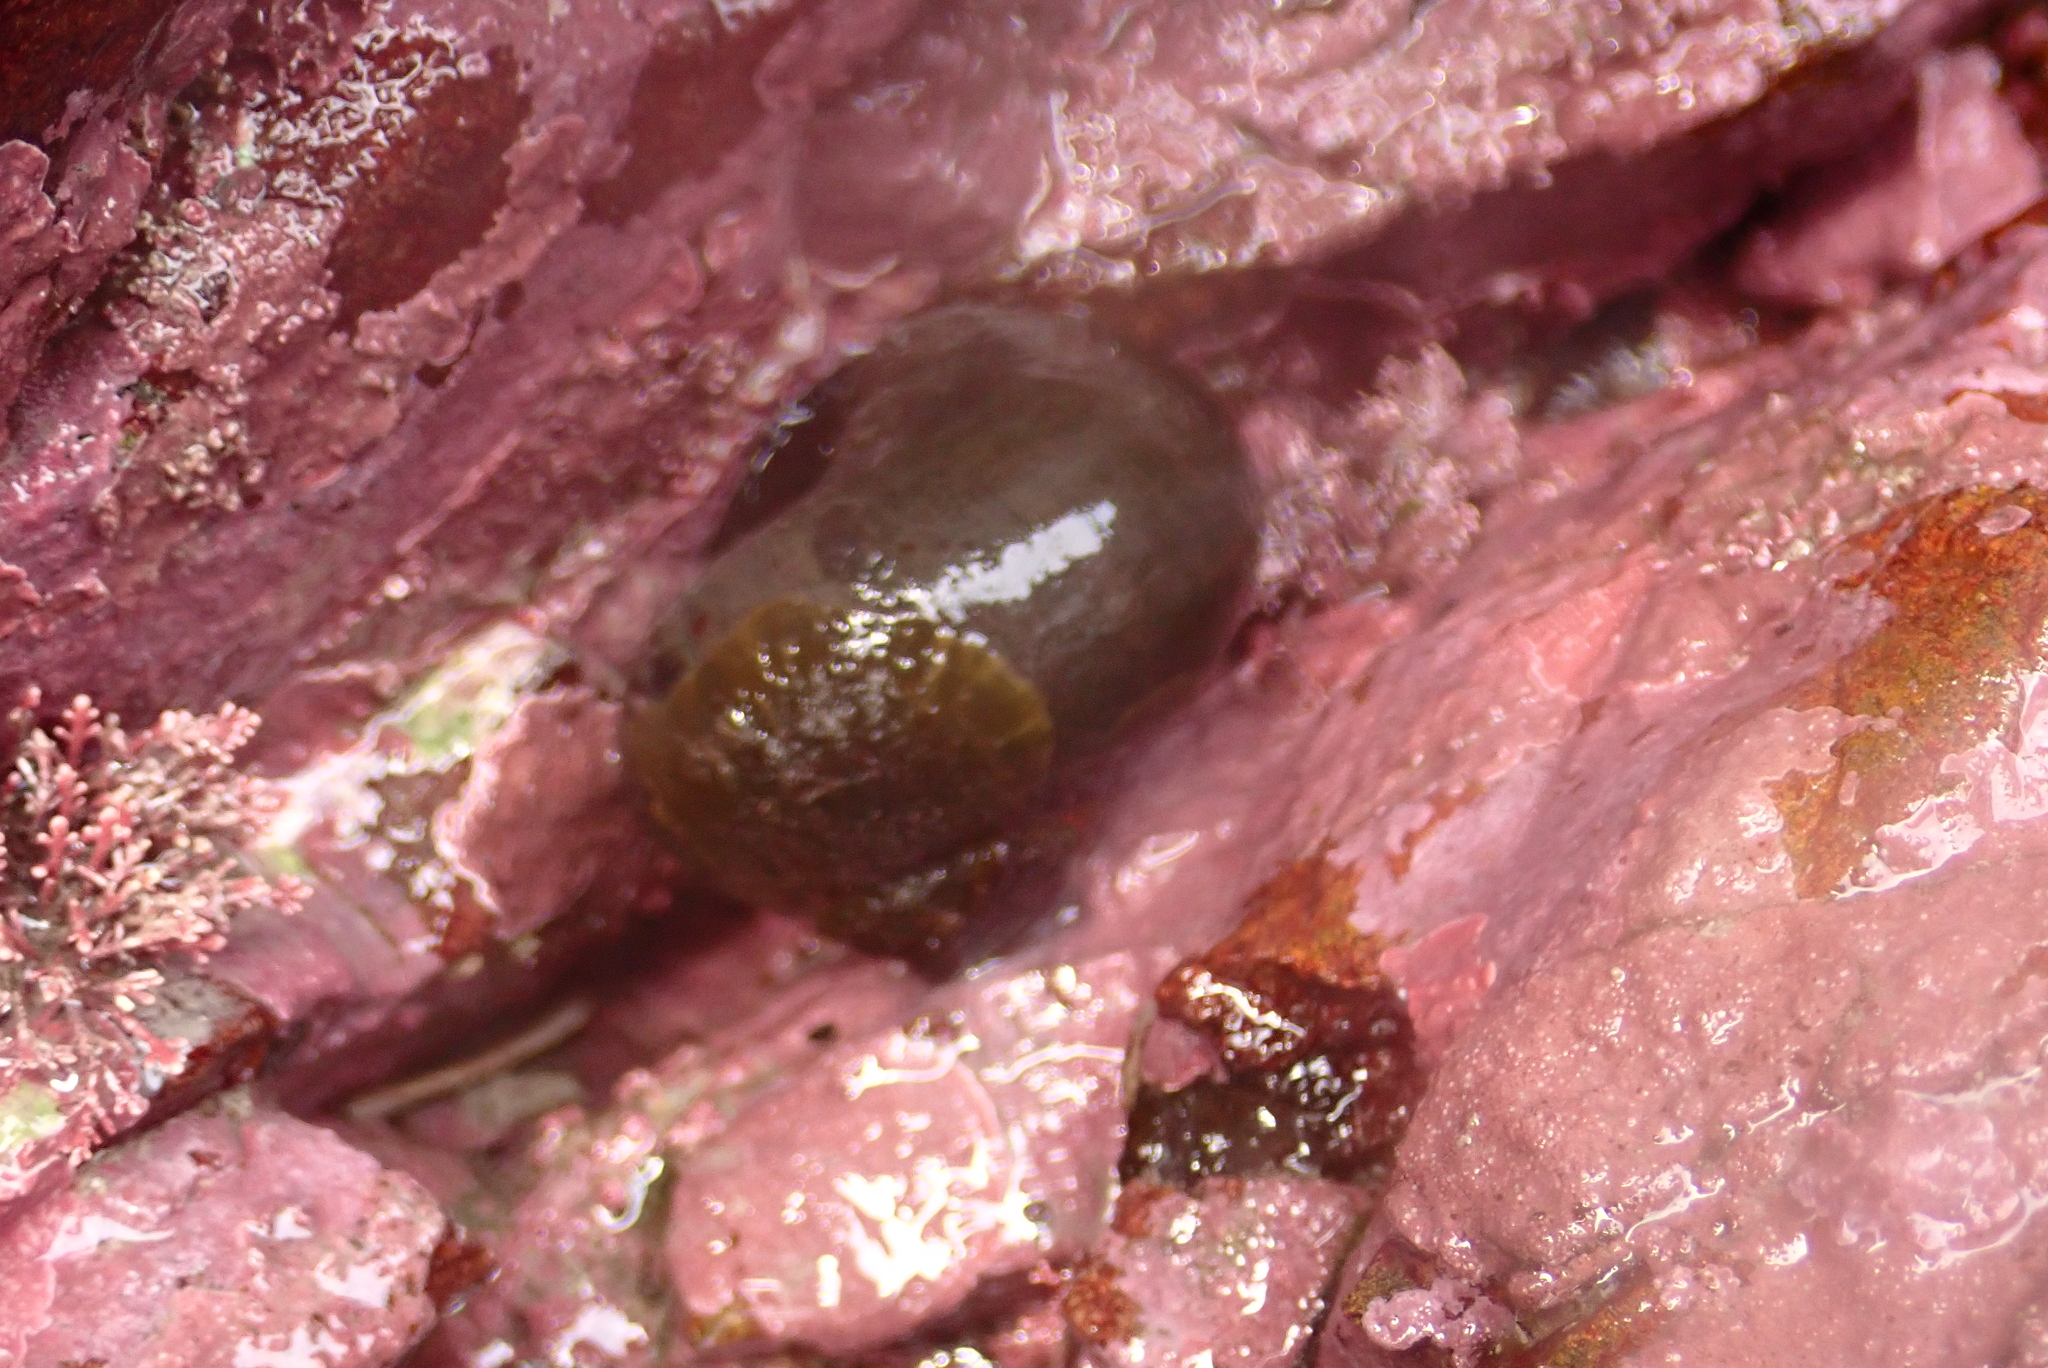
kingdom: Animalia
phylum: Mollusca
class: Gastropoda
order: Trochida
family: Turbinidae
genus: Lunella
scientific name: Lunella smaragda
